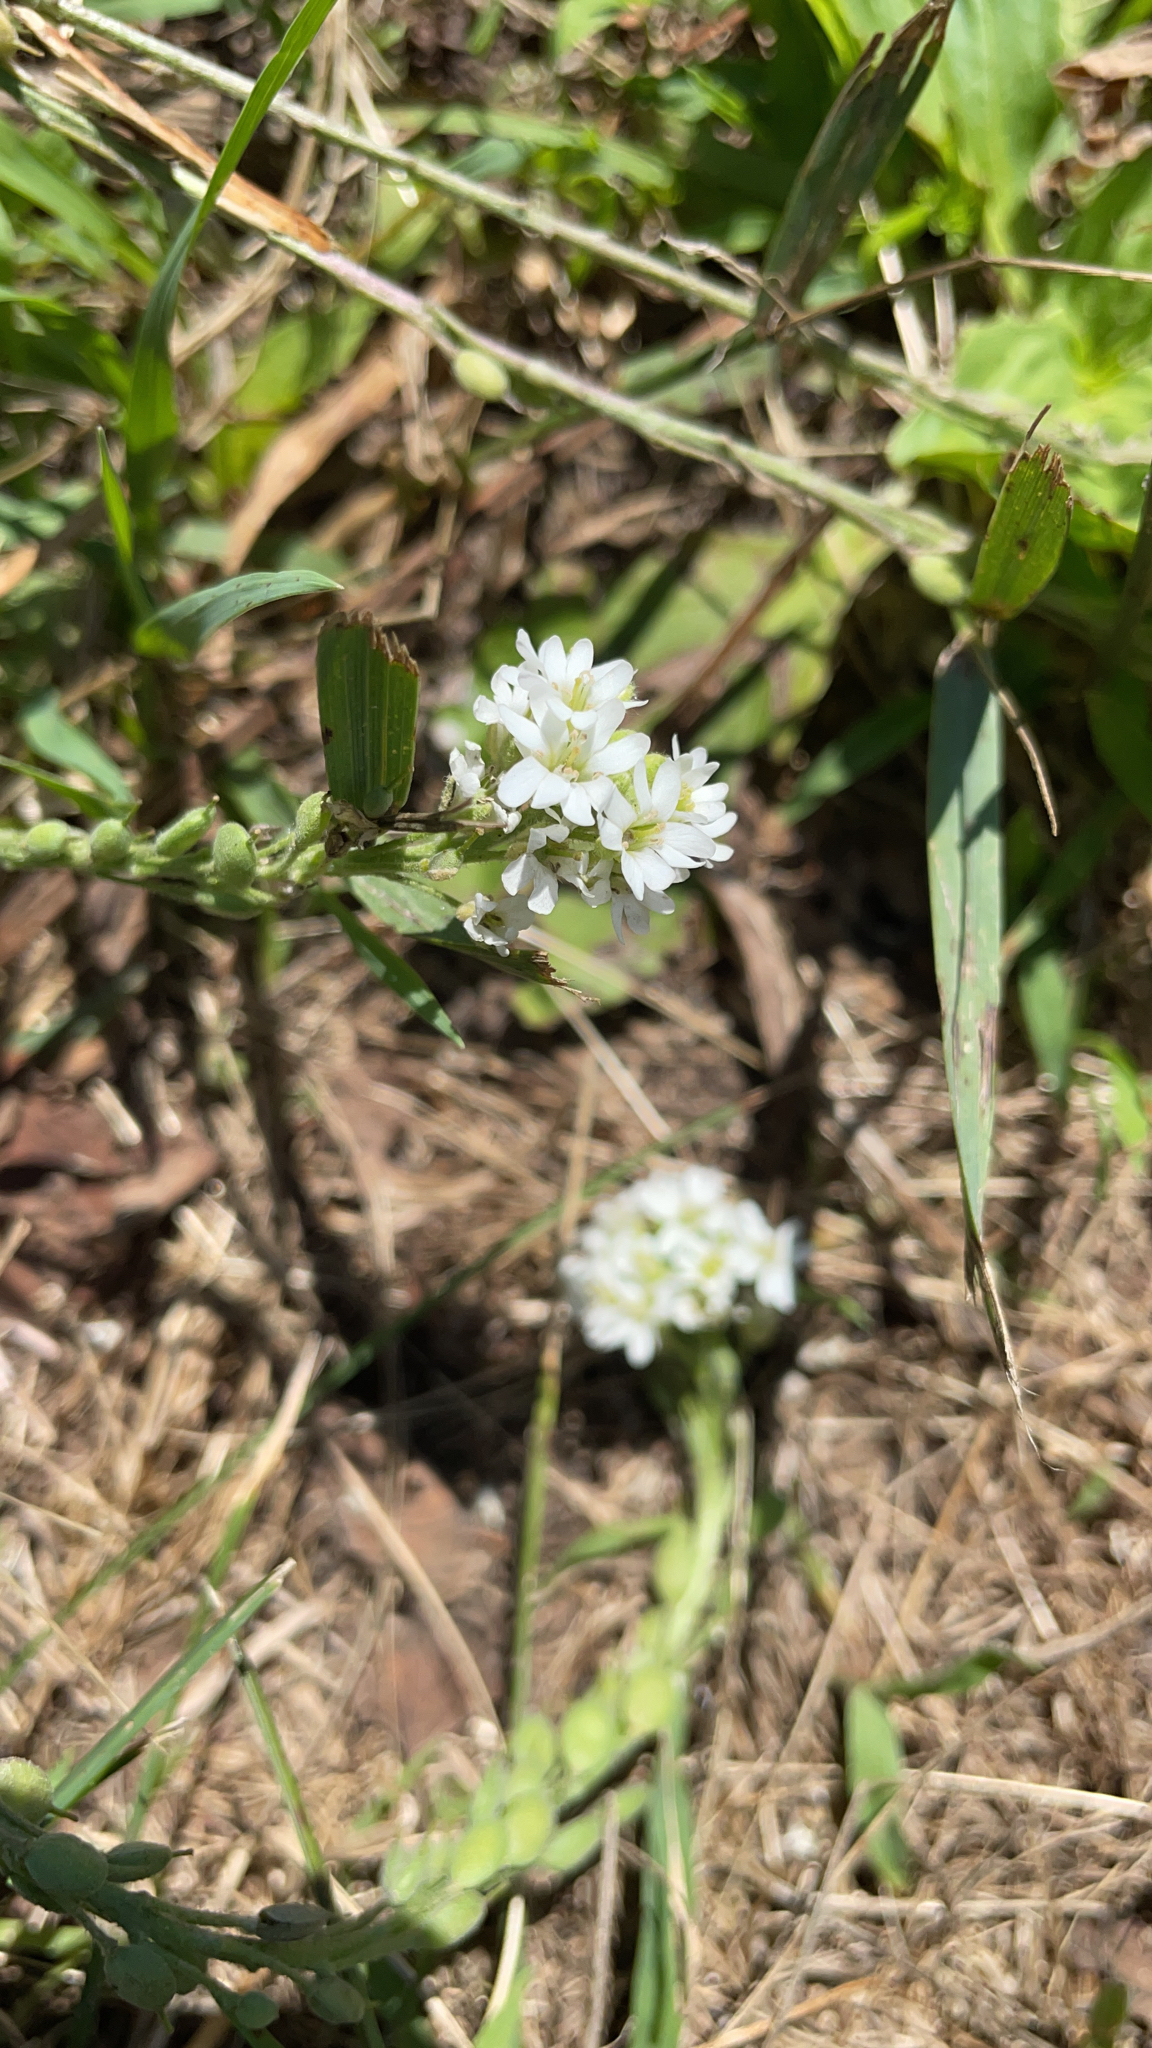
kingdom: Plantae
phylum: Tracheophyta
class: Magnoliopsida
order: Brassicales
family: Brassicaceae
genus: Berteroa
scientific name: Berteroa incana
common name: Hoary alison
